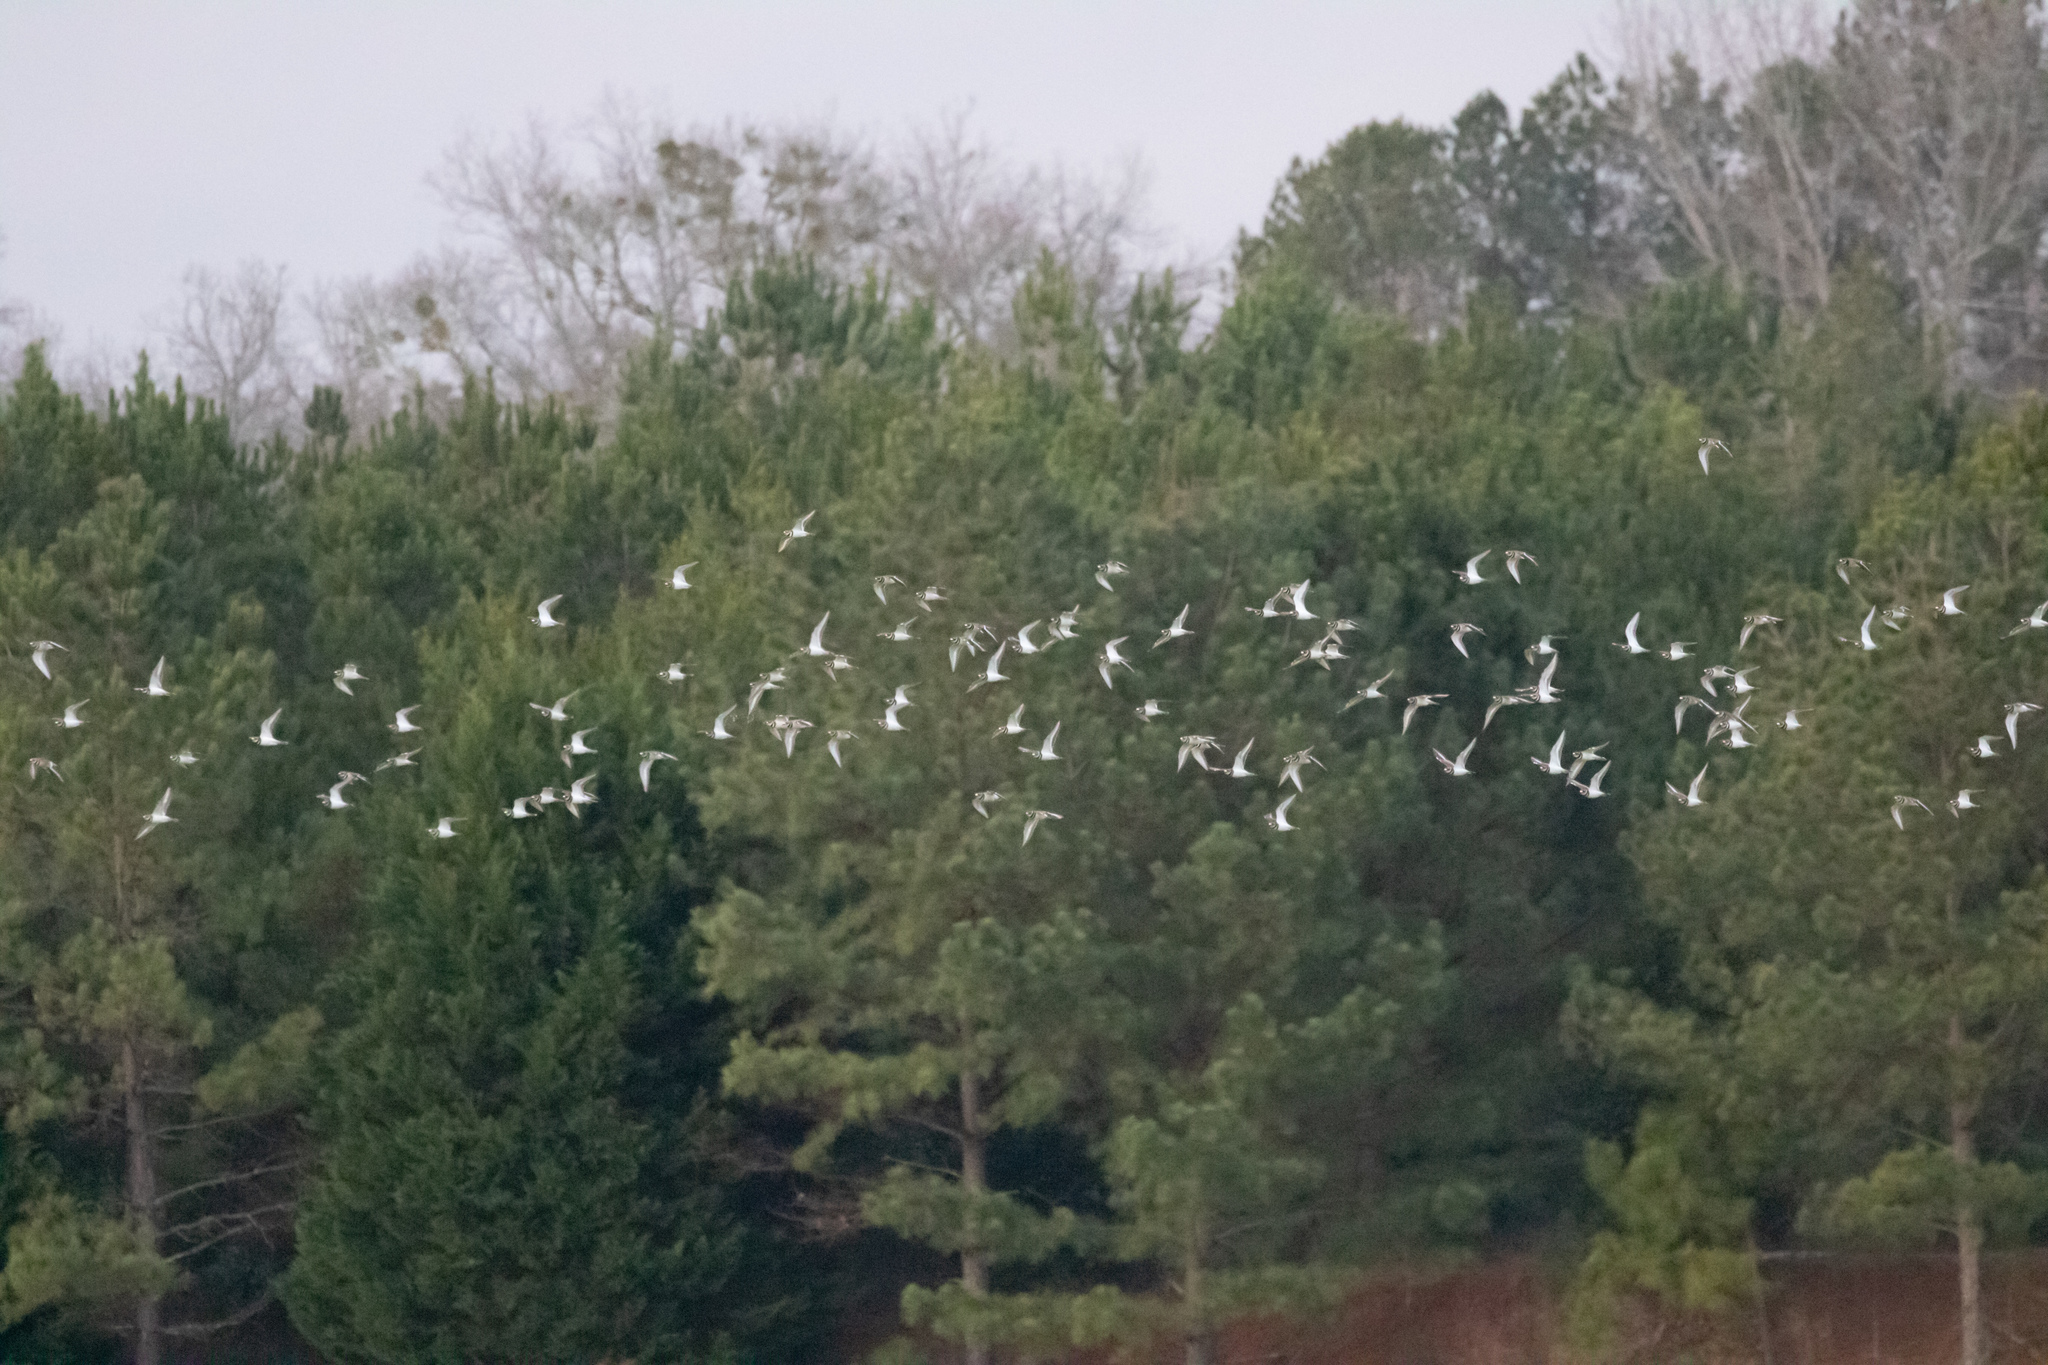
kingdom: Animalia
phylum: Chordata
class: Aves
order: Charadriiformes
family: Charadriidae
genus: Charadrius
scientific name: Charadrius vociferus
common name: Killdeer
